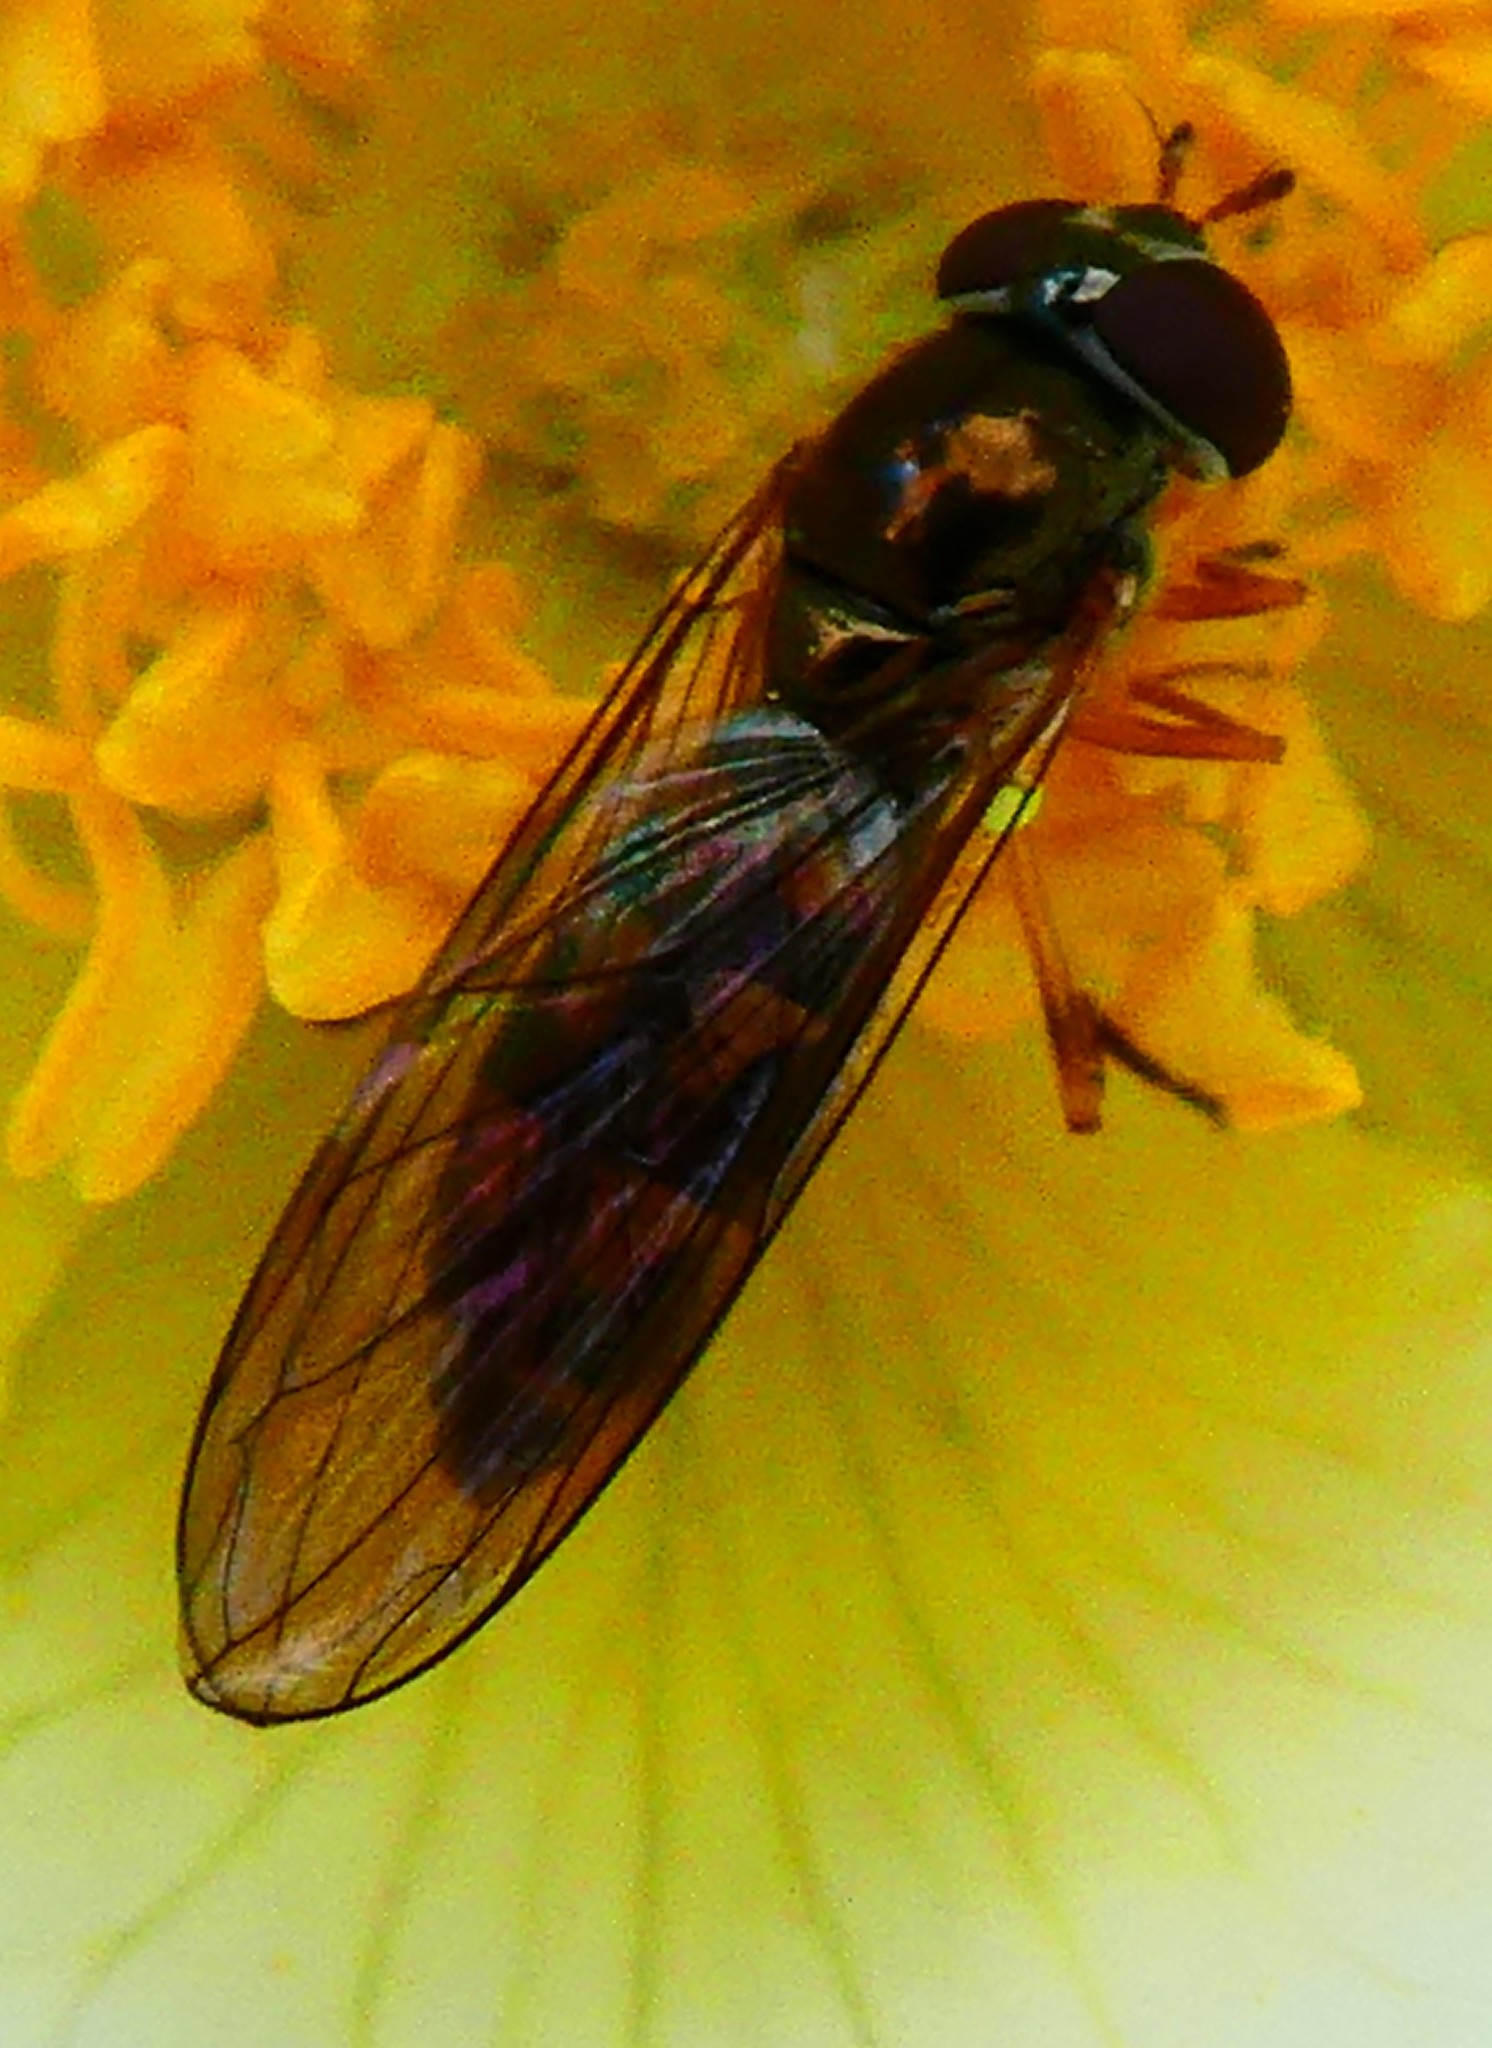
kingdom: Animalia
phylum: Arthropoda
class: Insecta
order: Diptera
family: Syrphidae
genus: Melanostoma
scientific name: Melanostoma scalare
